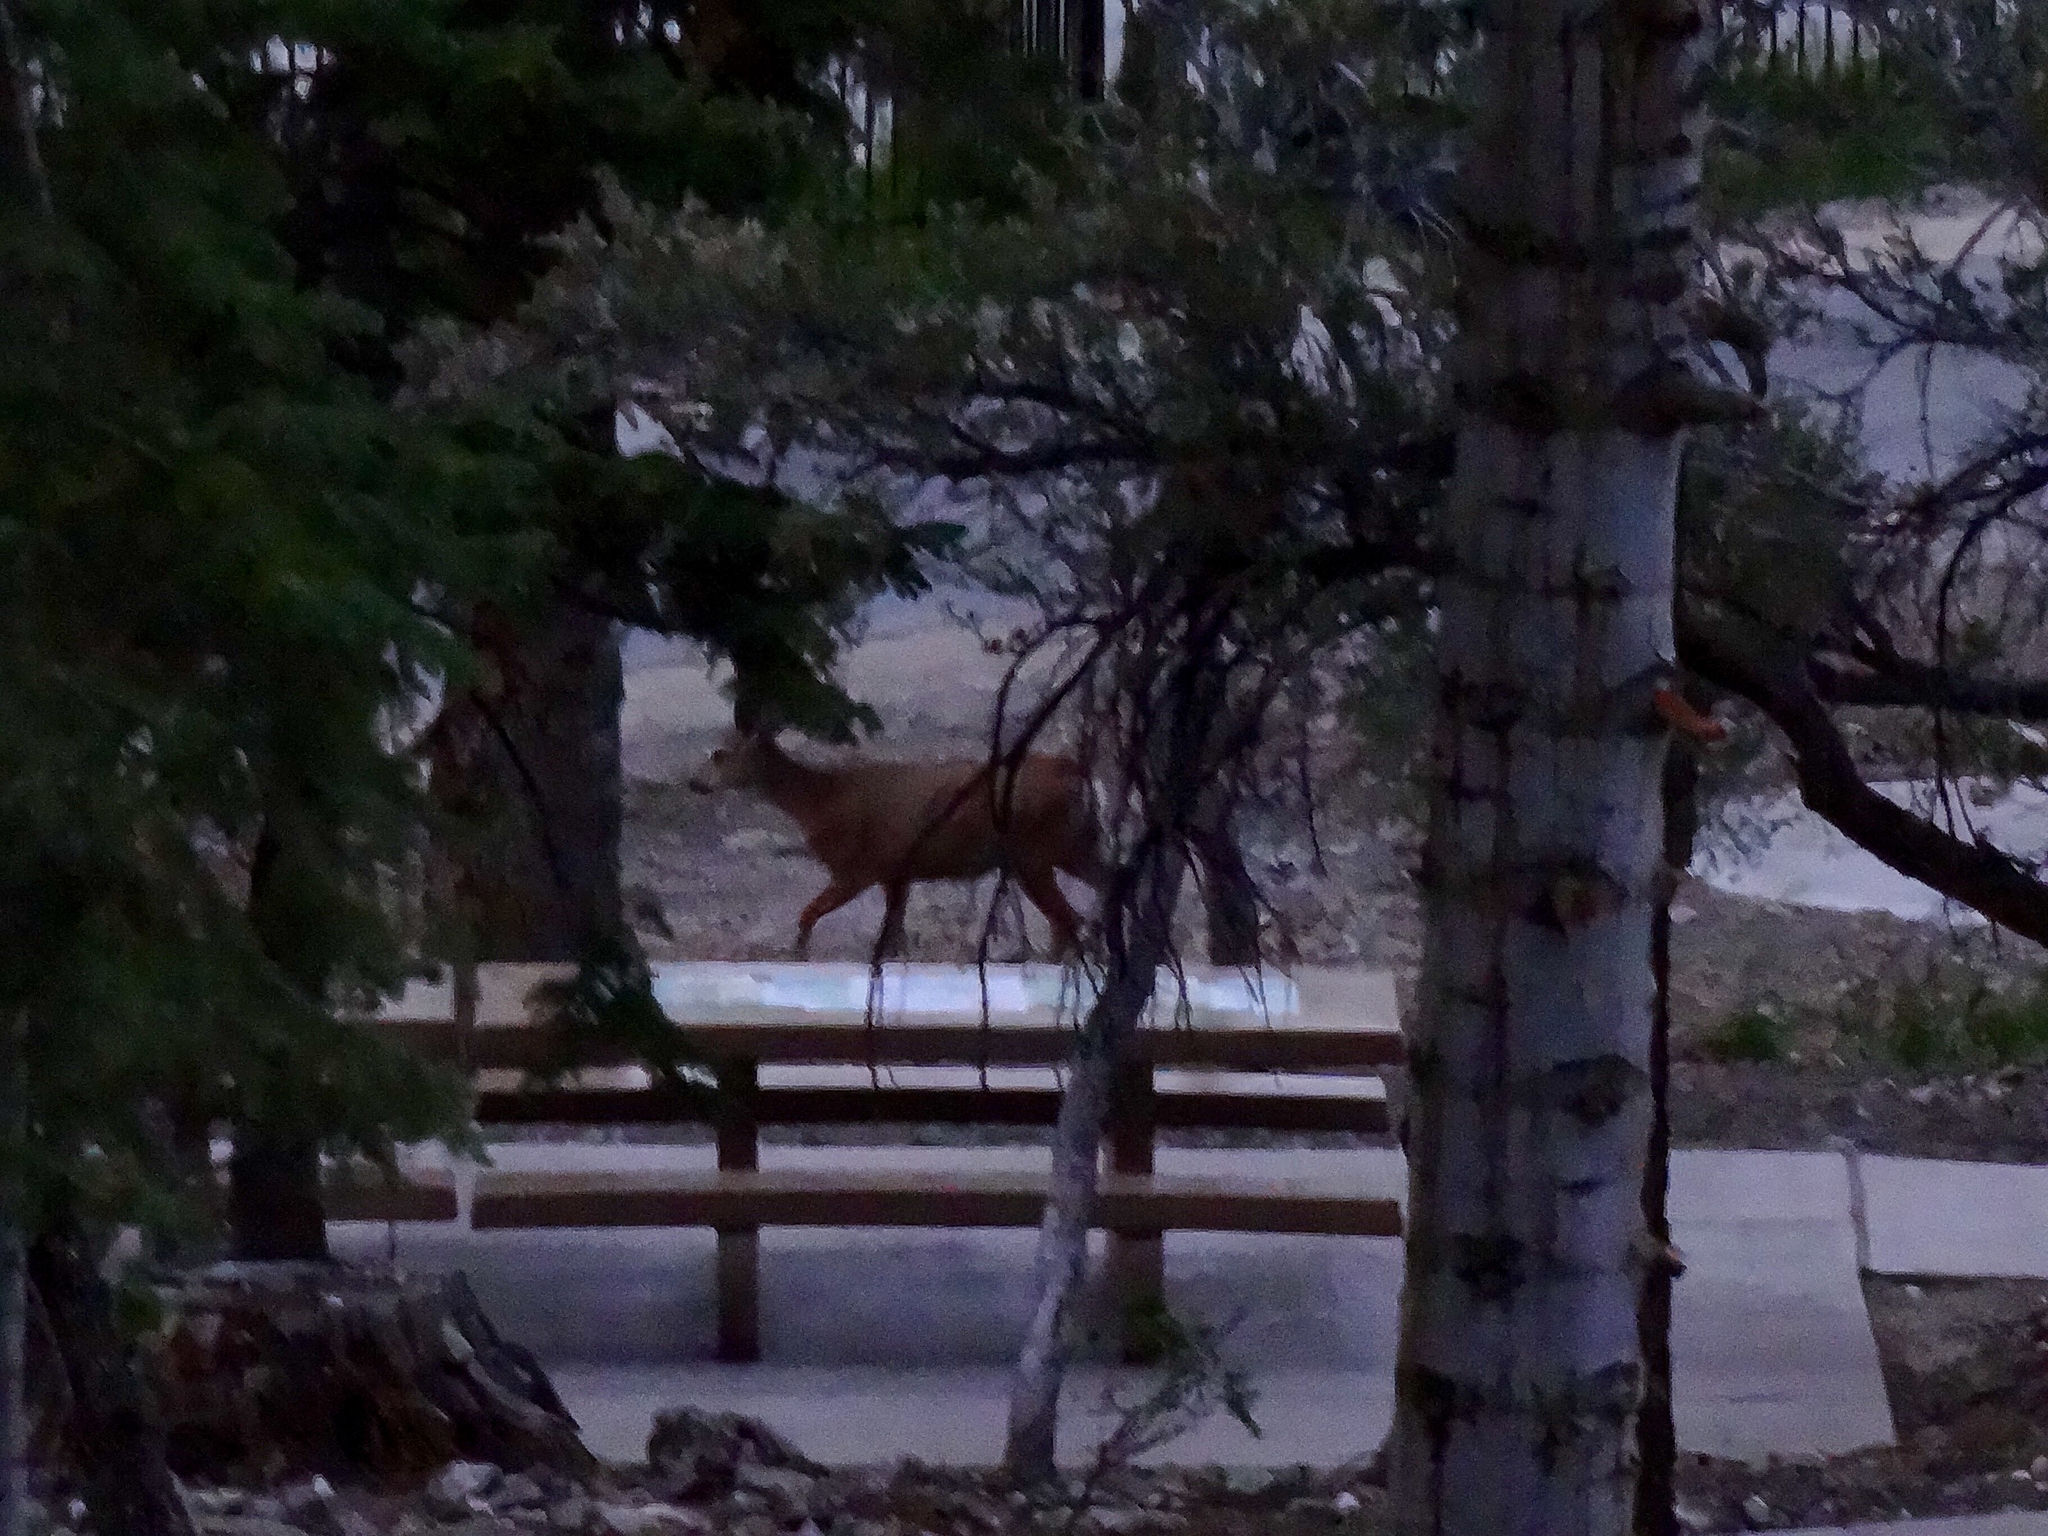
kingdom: Animalia
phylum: Chordata
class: Mammalia
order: Artiodactyla
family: Cervidae
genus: Odocoileus
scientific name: Odocoileus hemionus
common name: Mule deer
